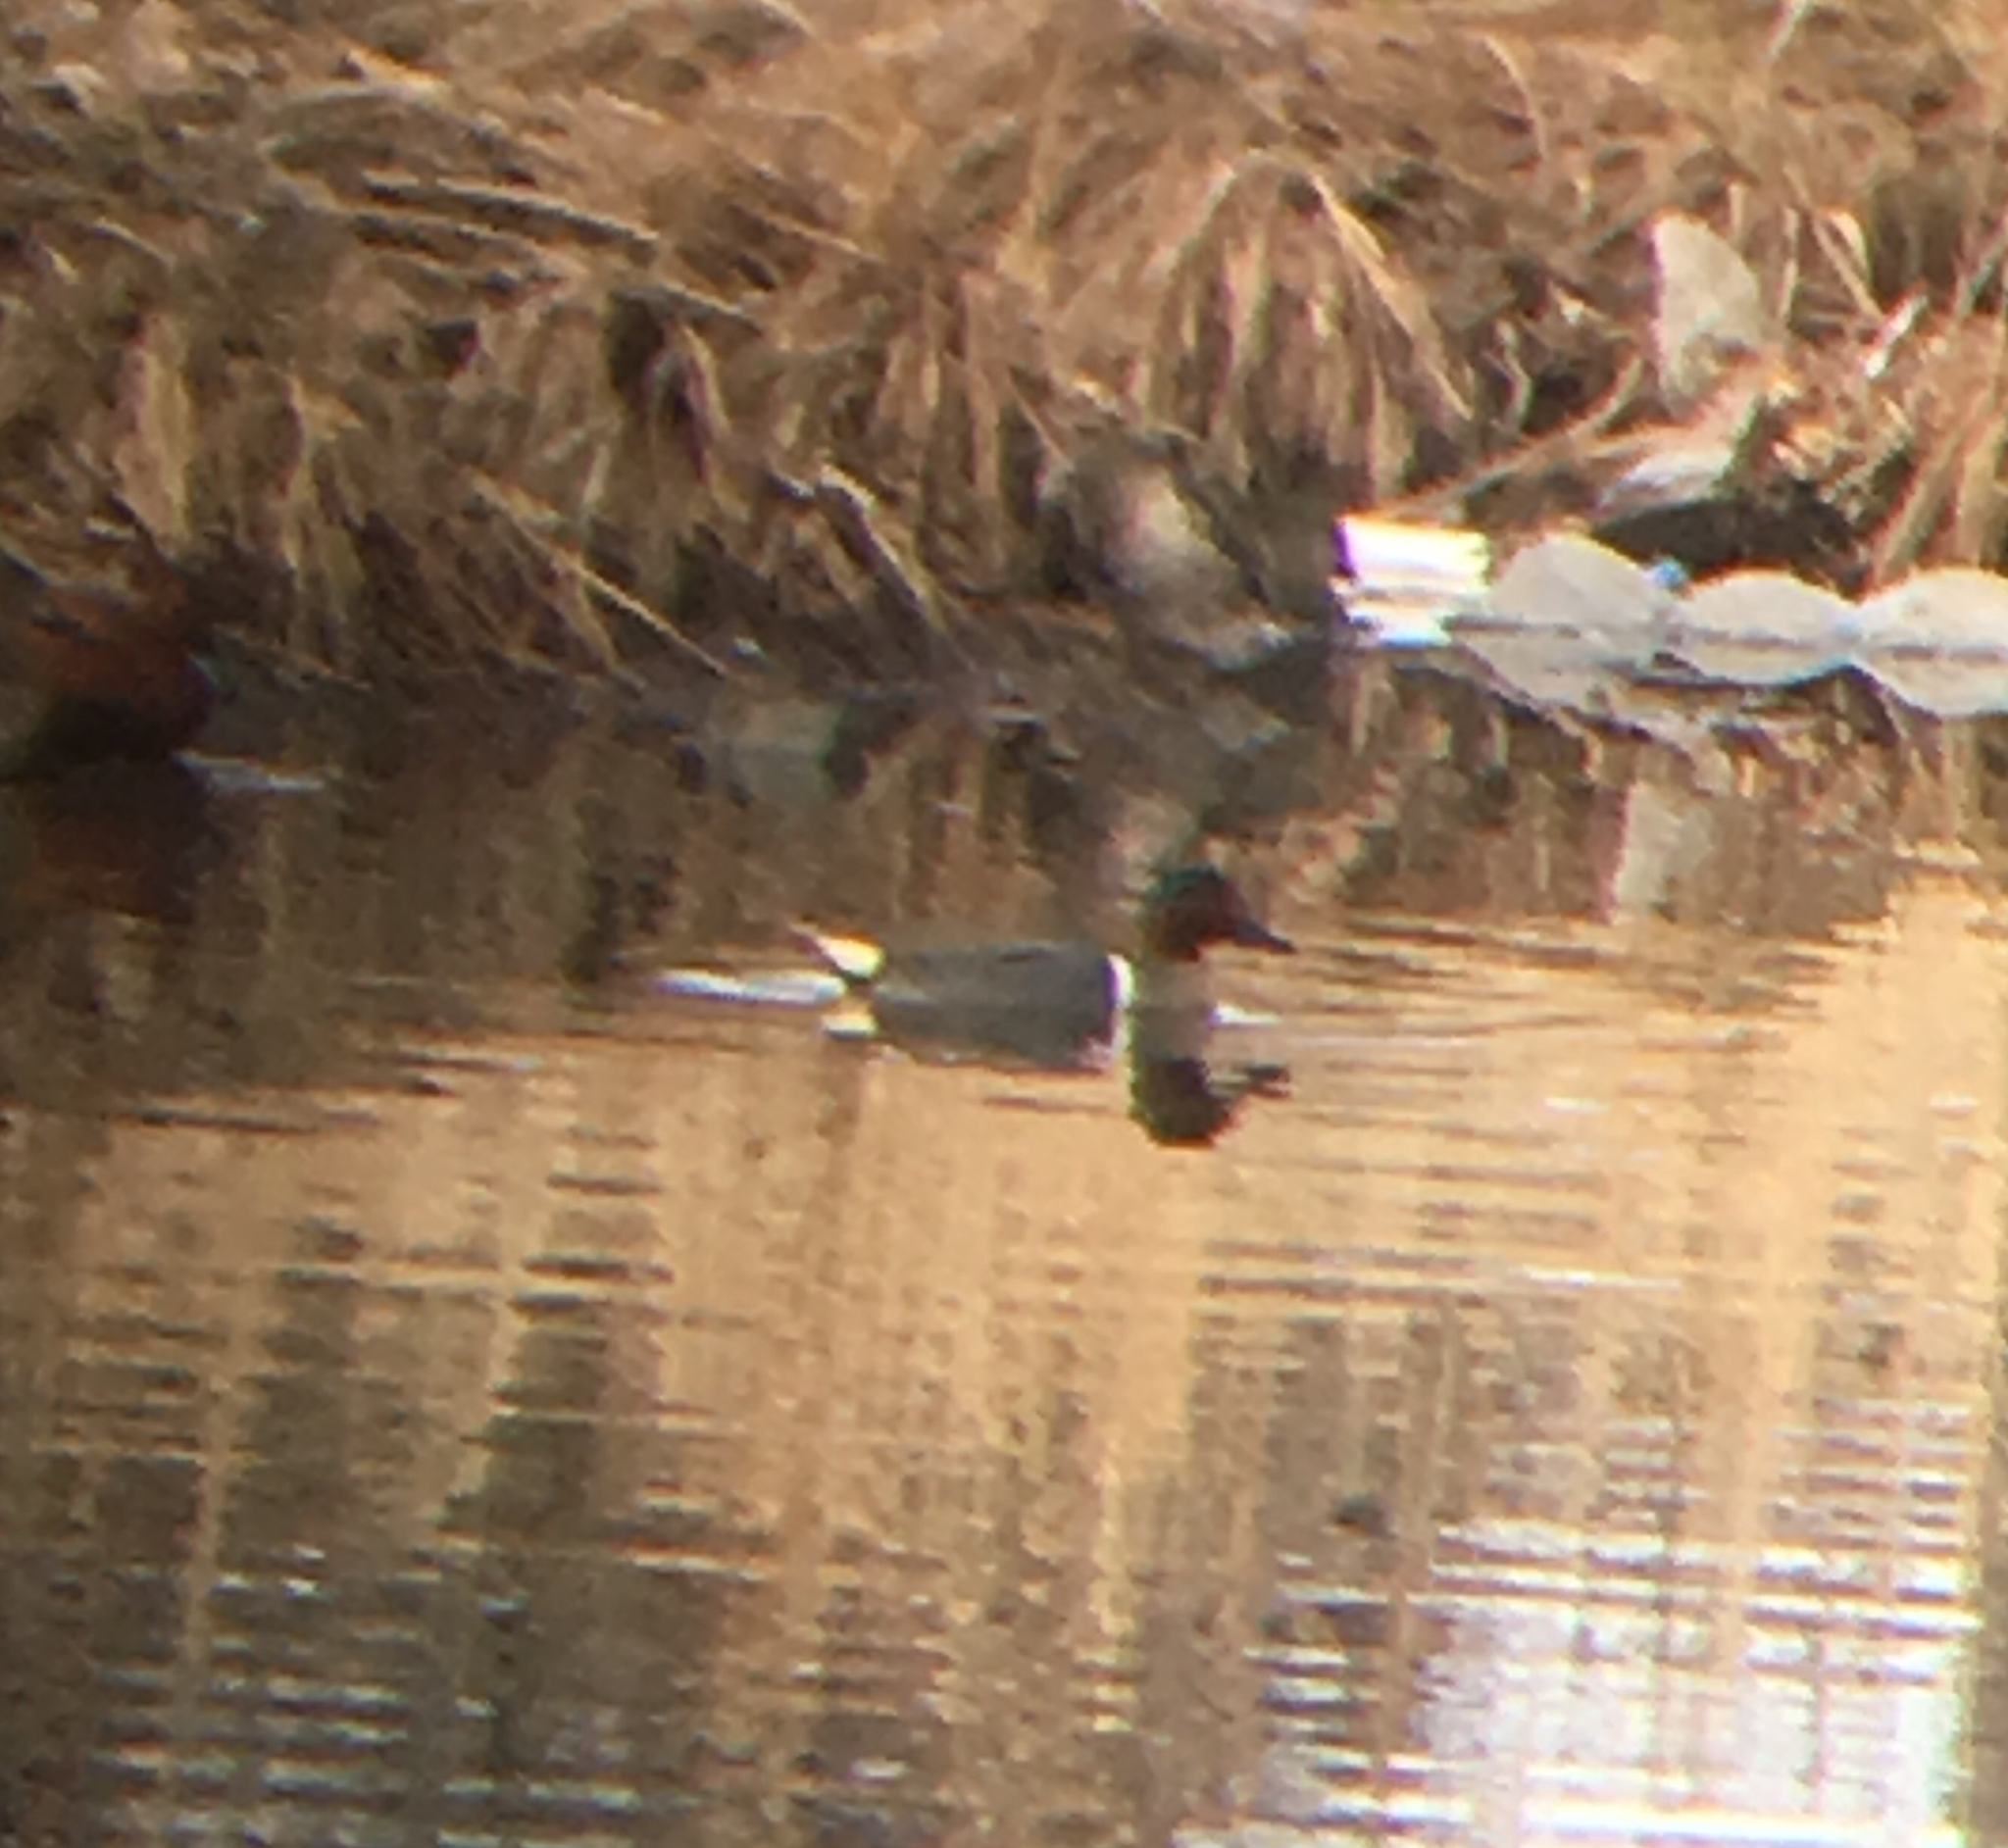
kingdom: Animalia
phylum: Chordata
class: Aves
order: Anseriformes
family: Anatidae
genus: Anas
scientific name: Anas crecca
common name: Eurasian teal
